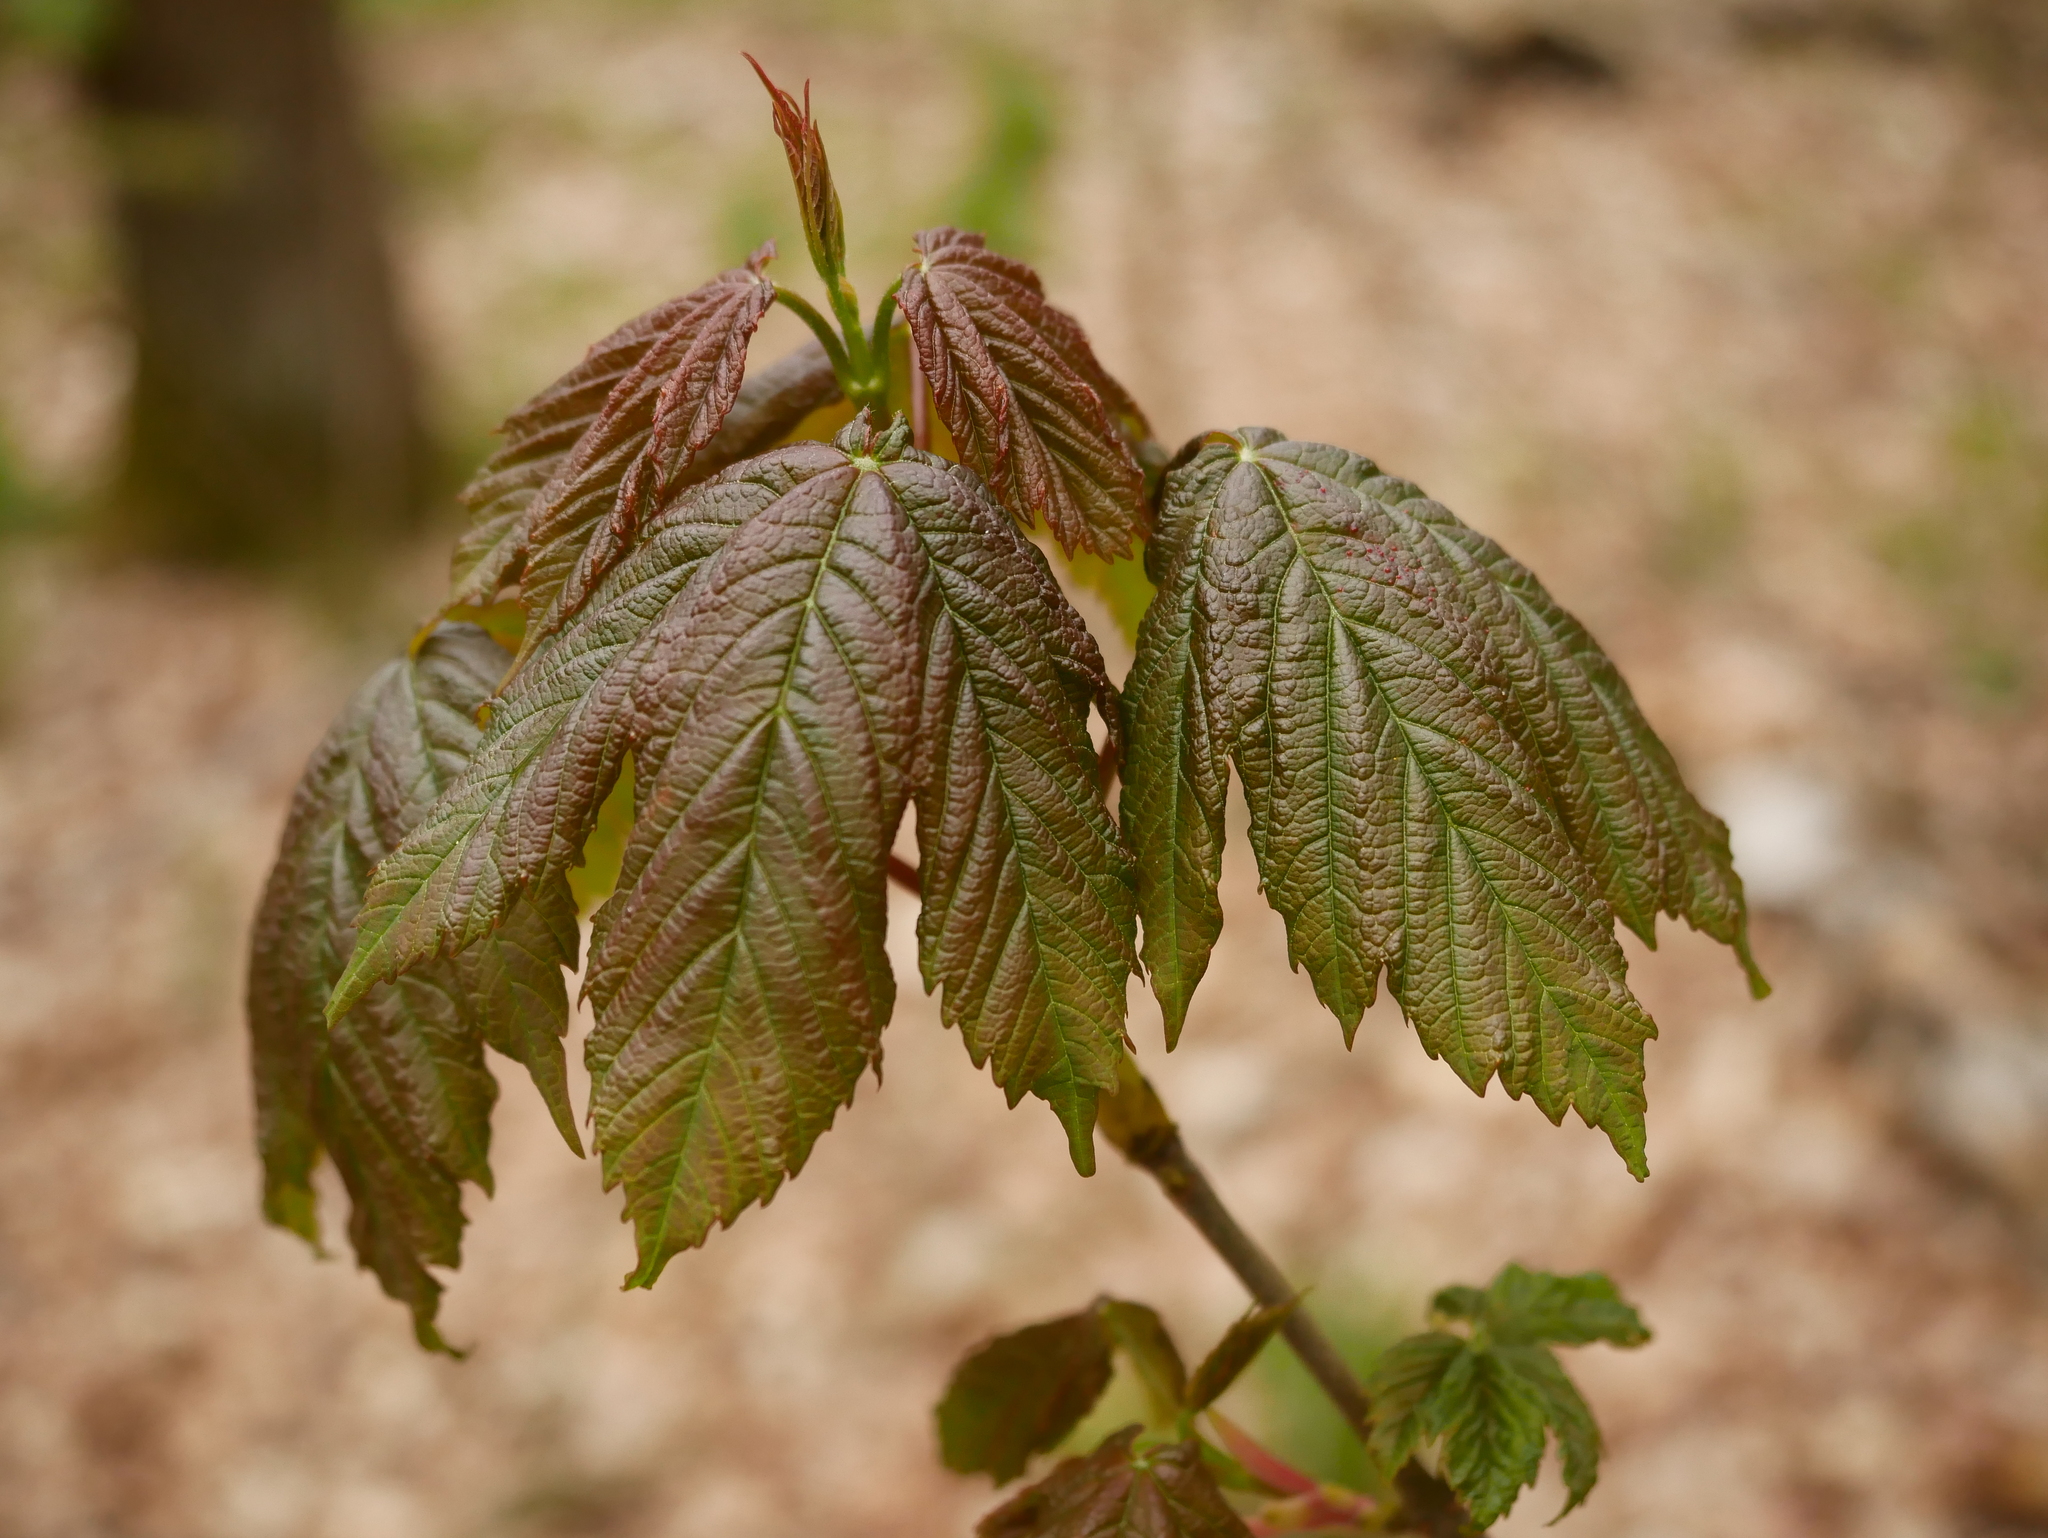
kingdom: Plantae
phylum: Tracheophyta
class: Magnoliopsida
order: Sapindales
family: Sapindaceae
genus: Acer
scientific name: Acer pseudoplatanus
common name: Sycamore
